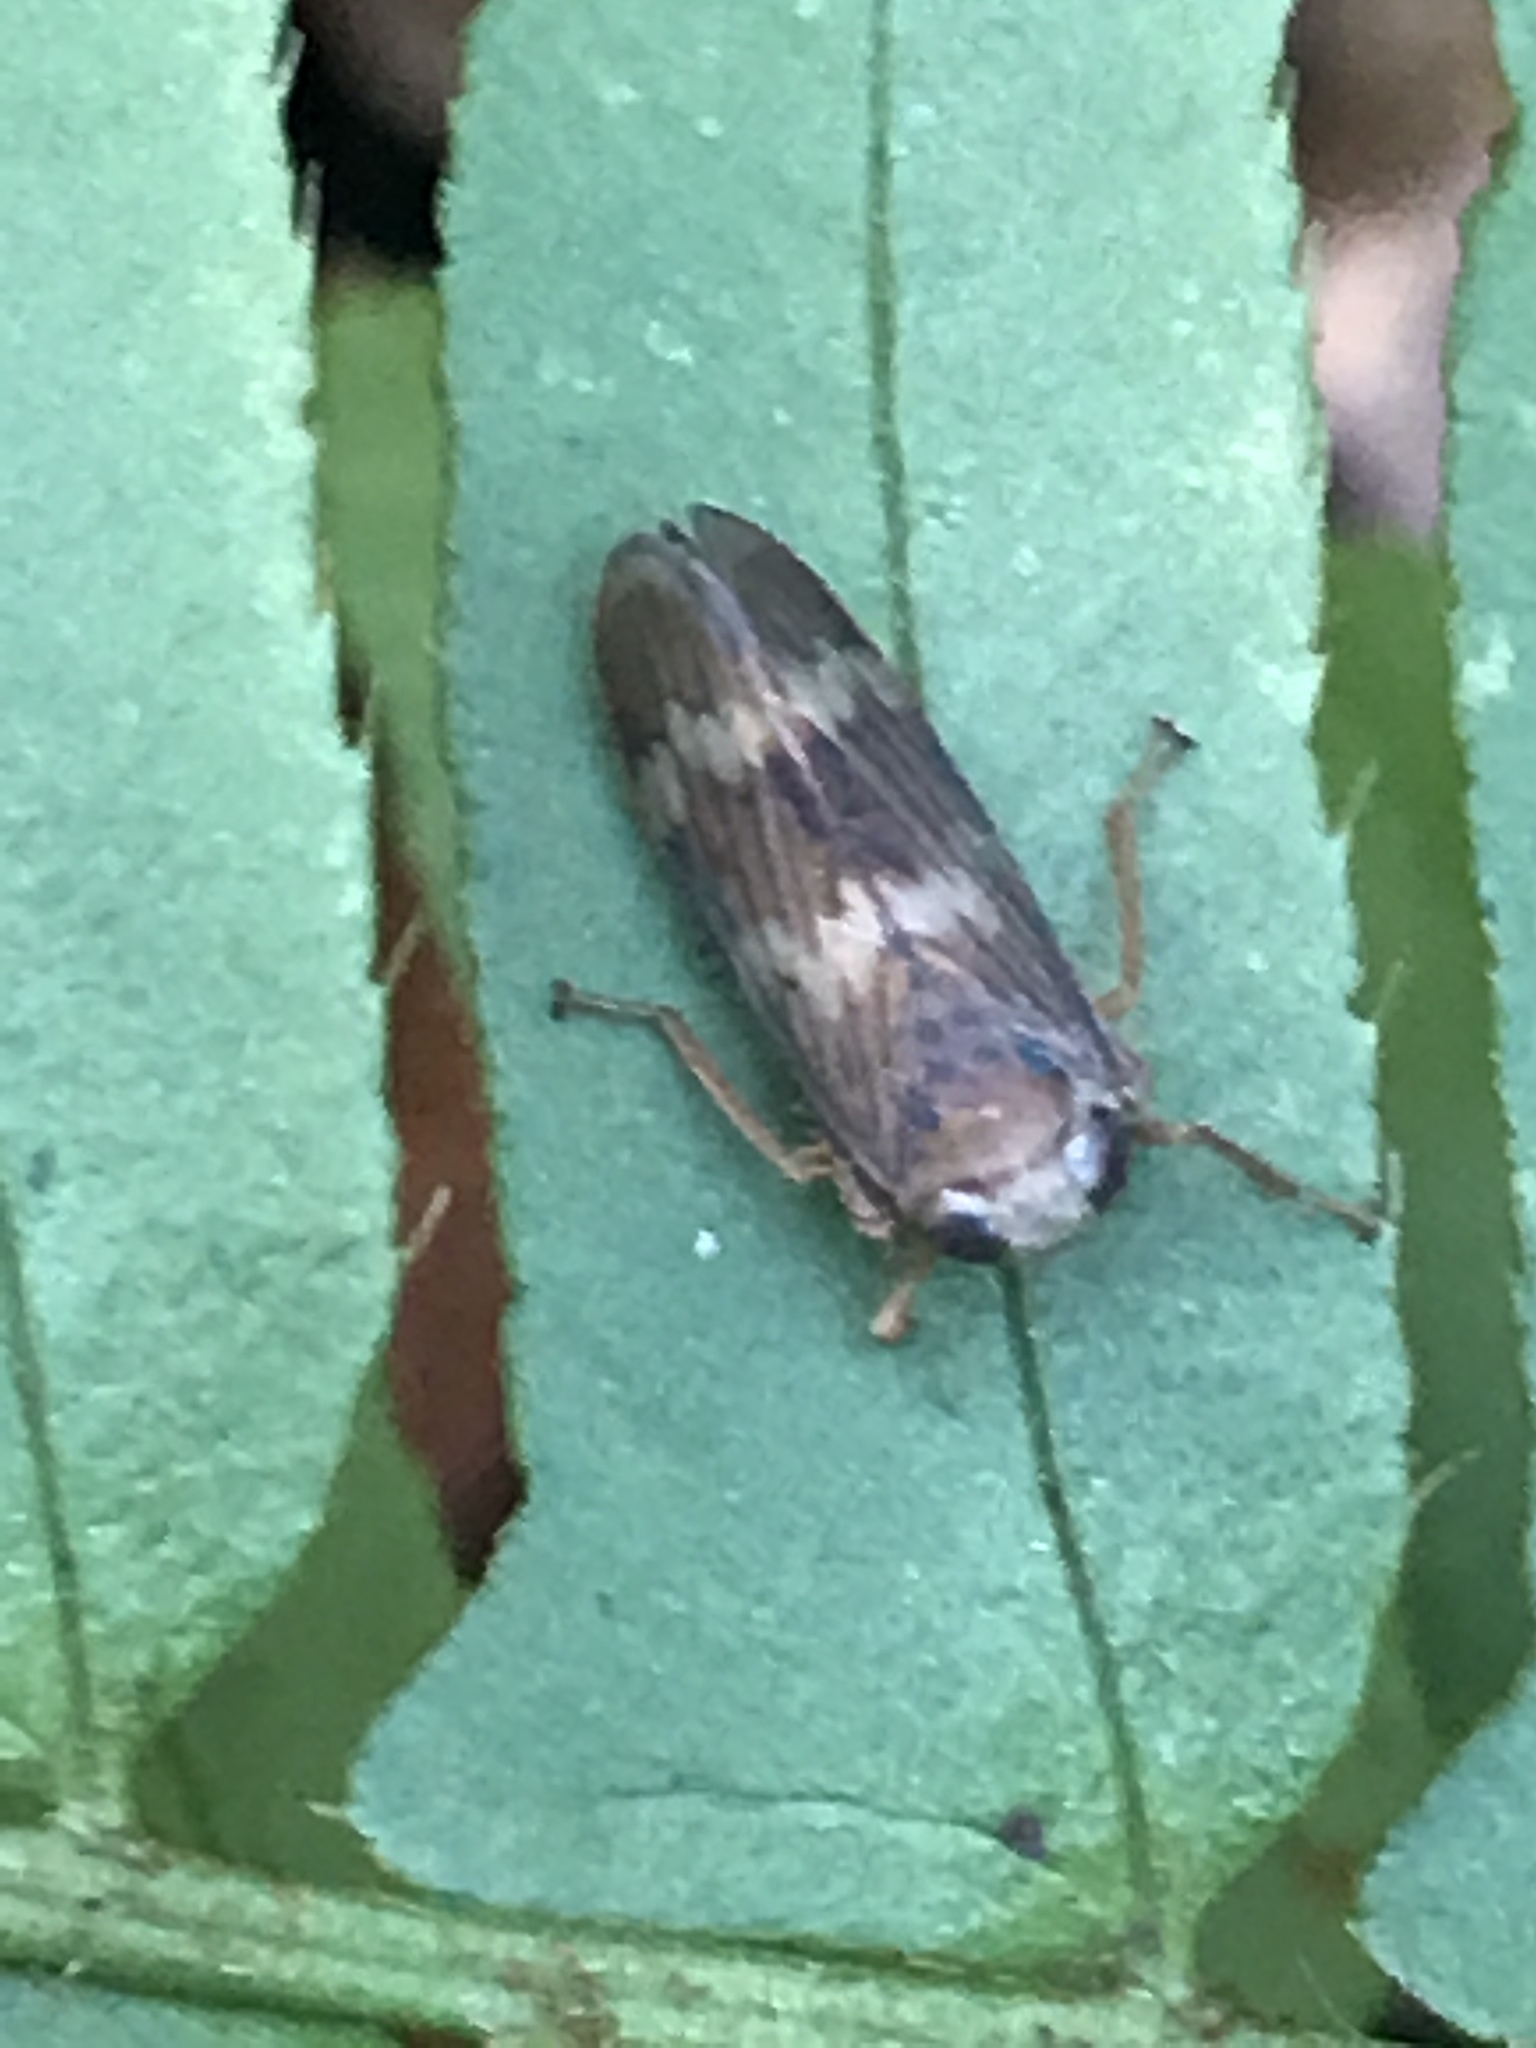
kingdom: Animalia
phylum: Arthropoda
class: Insecta
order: Hemiptera
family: Cicadellidae
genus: Jikradia
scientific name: Jikradia olitoria
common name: Coppery leafhopper
